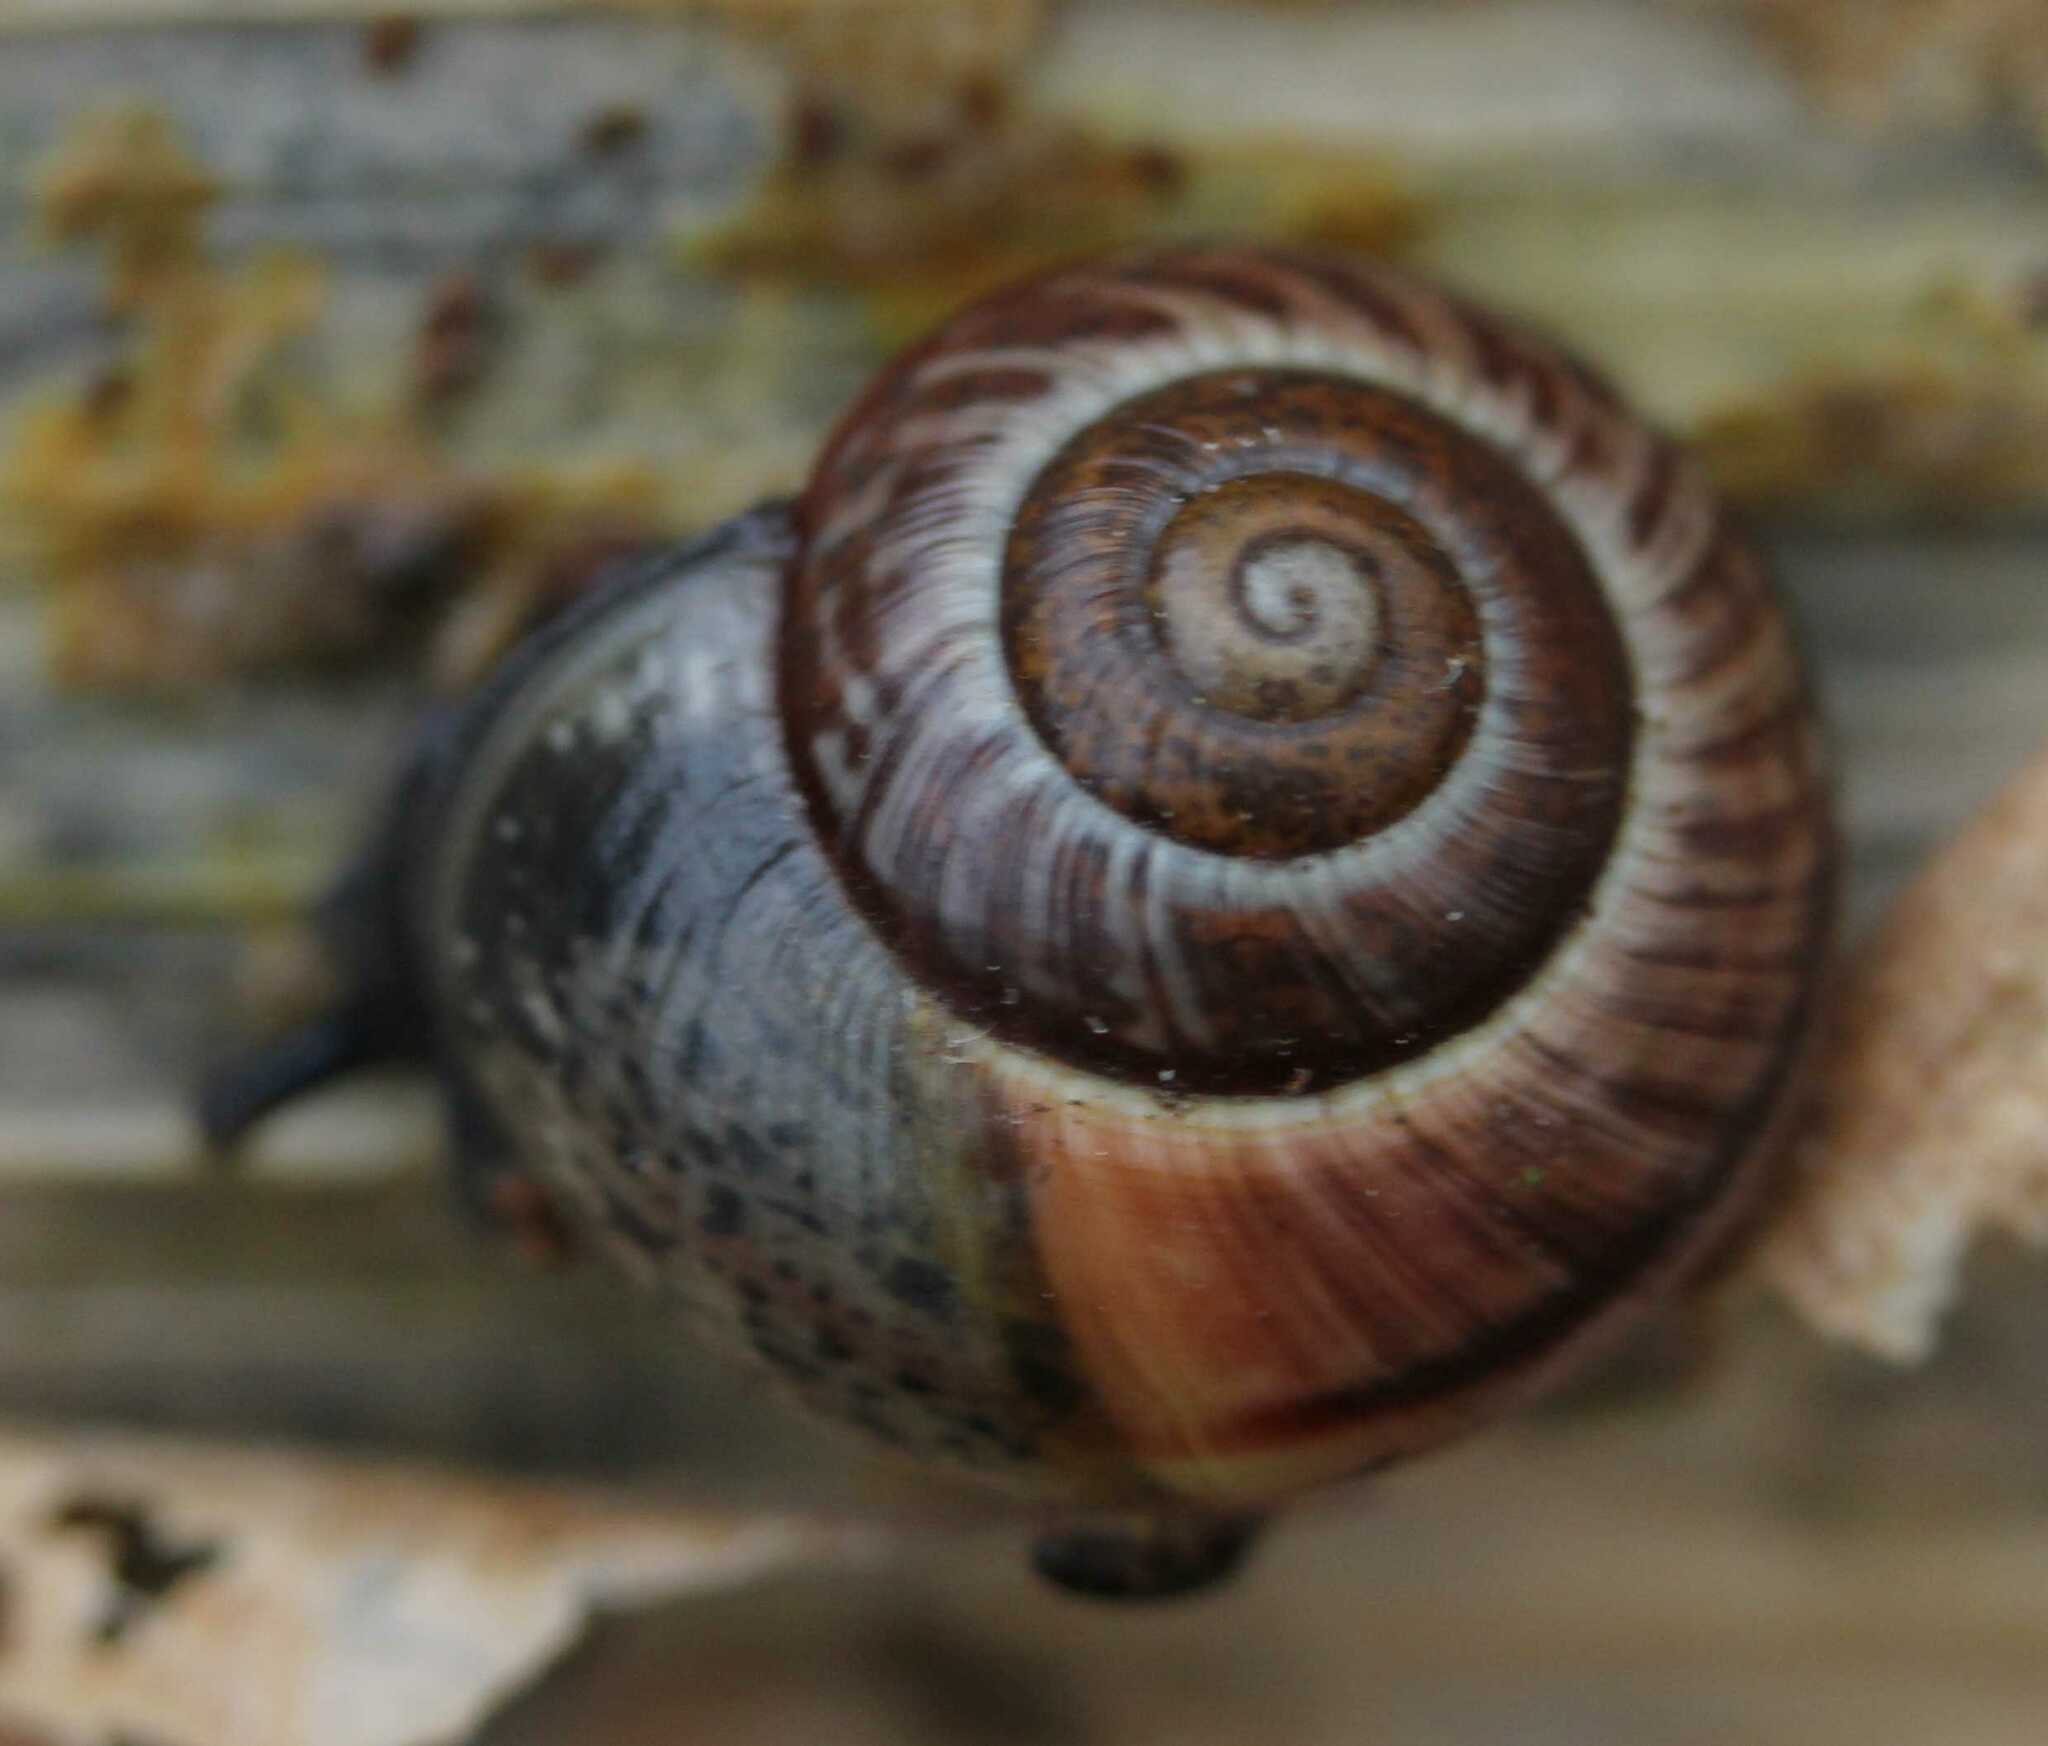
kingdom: Animalia
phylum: Mollusca
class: Gastropoda
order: Stylommatophora
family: Helicidae
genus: Arianta
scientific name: Arianta arbustorum
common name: Copse snail
